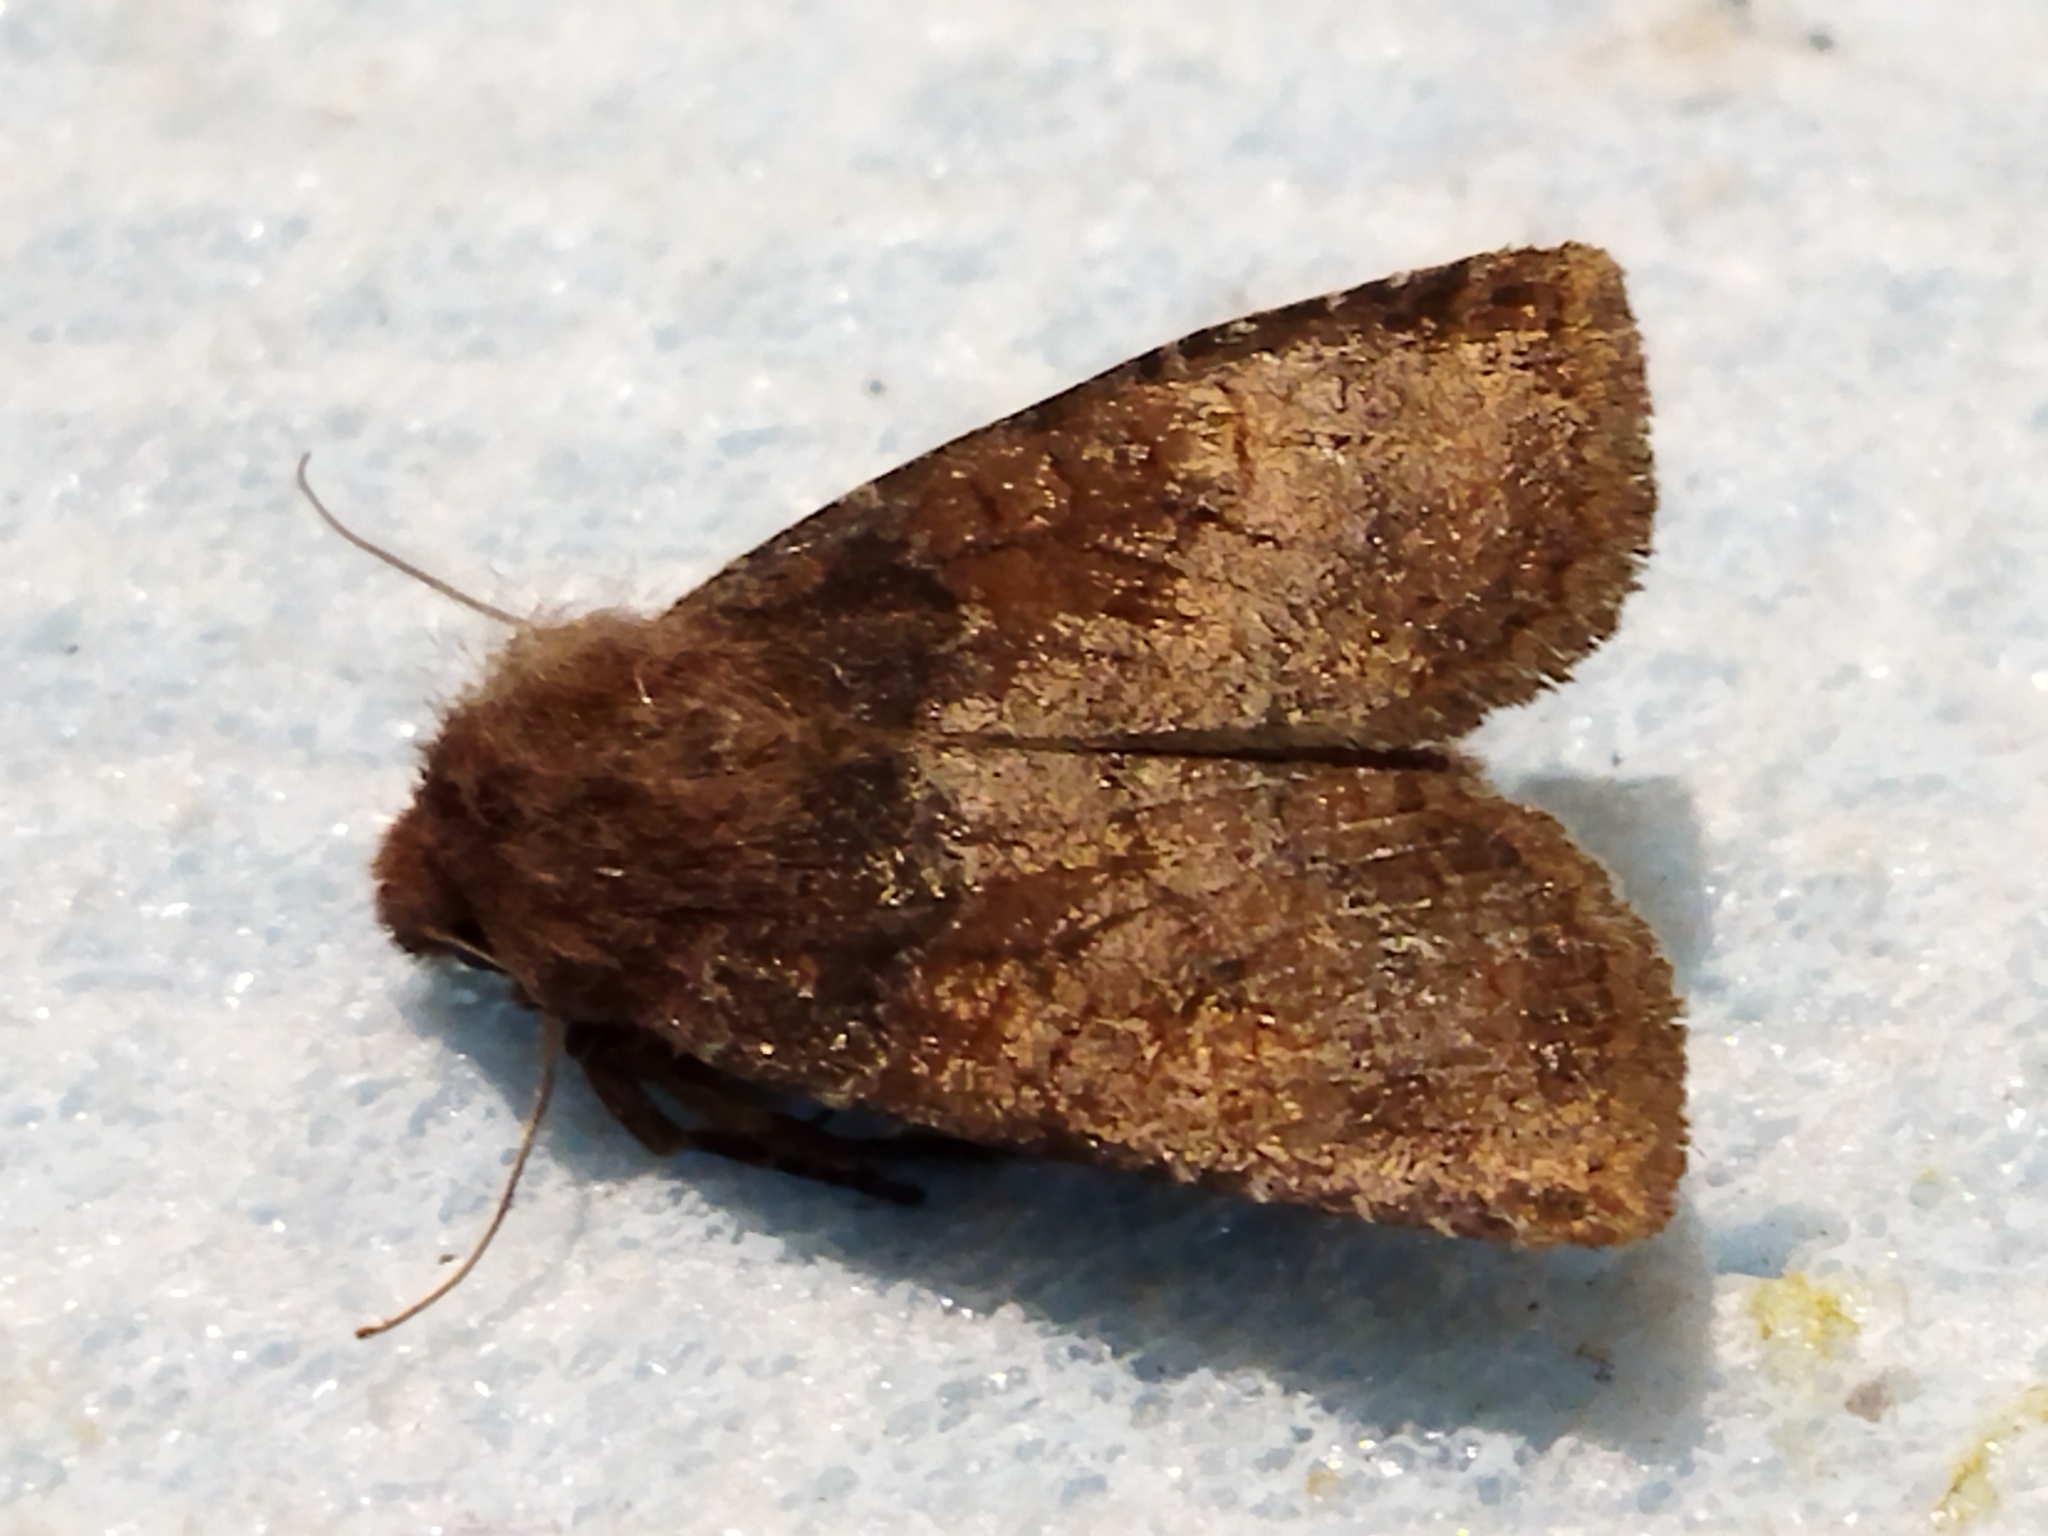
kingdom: Animalia
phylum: Arthropoda
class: Insecta
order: Lepidoptera
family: Noctuidae
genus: Conistra
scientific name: Conistra vaccinii
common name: Chestnut
